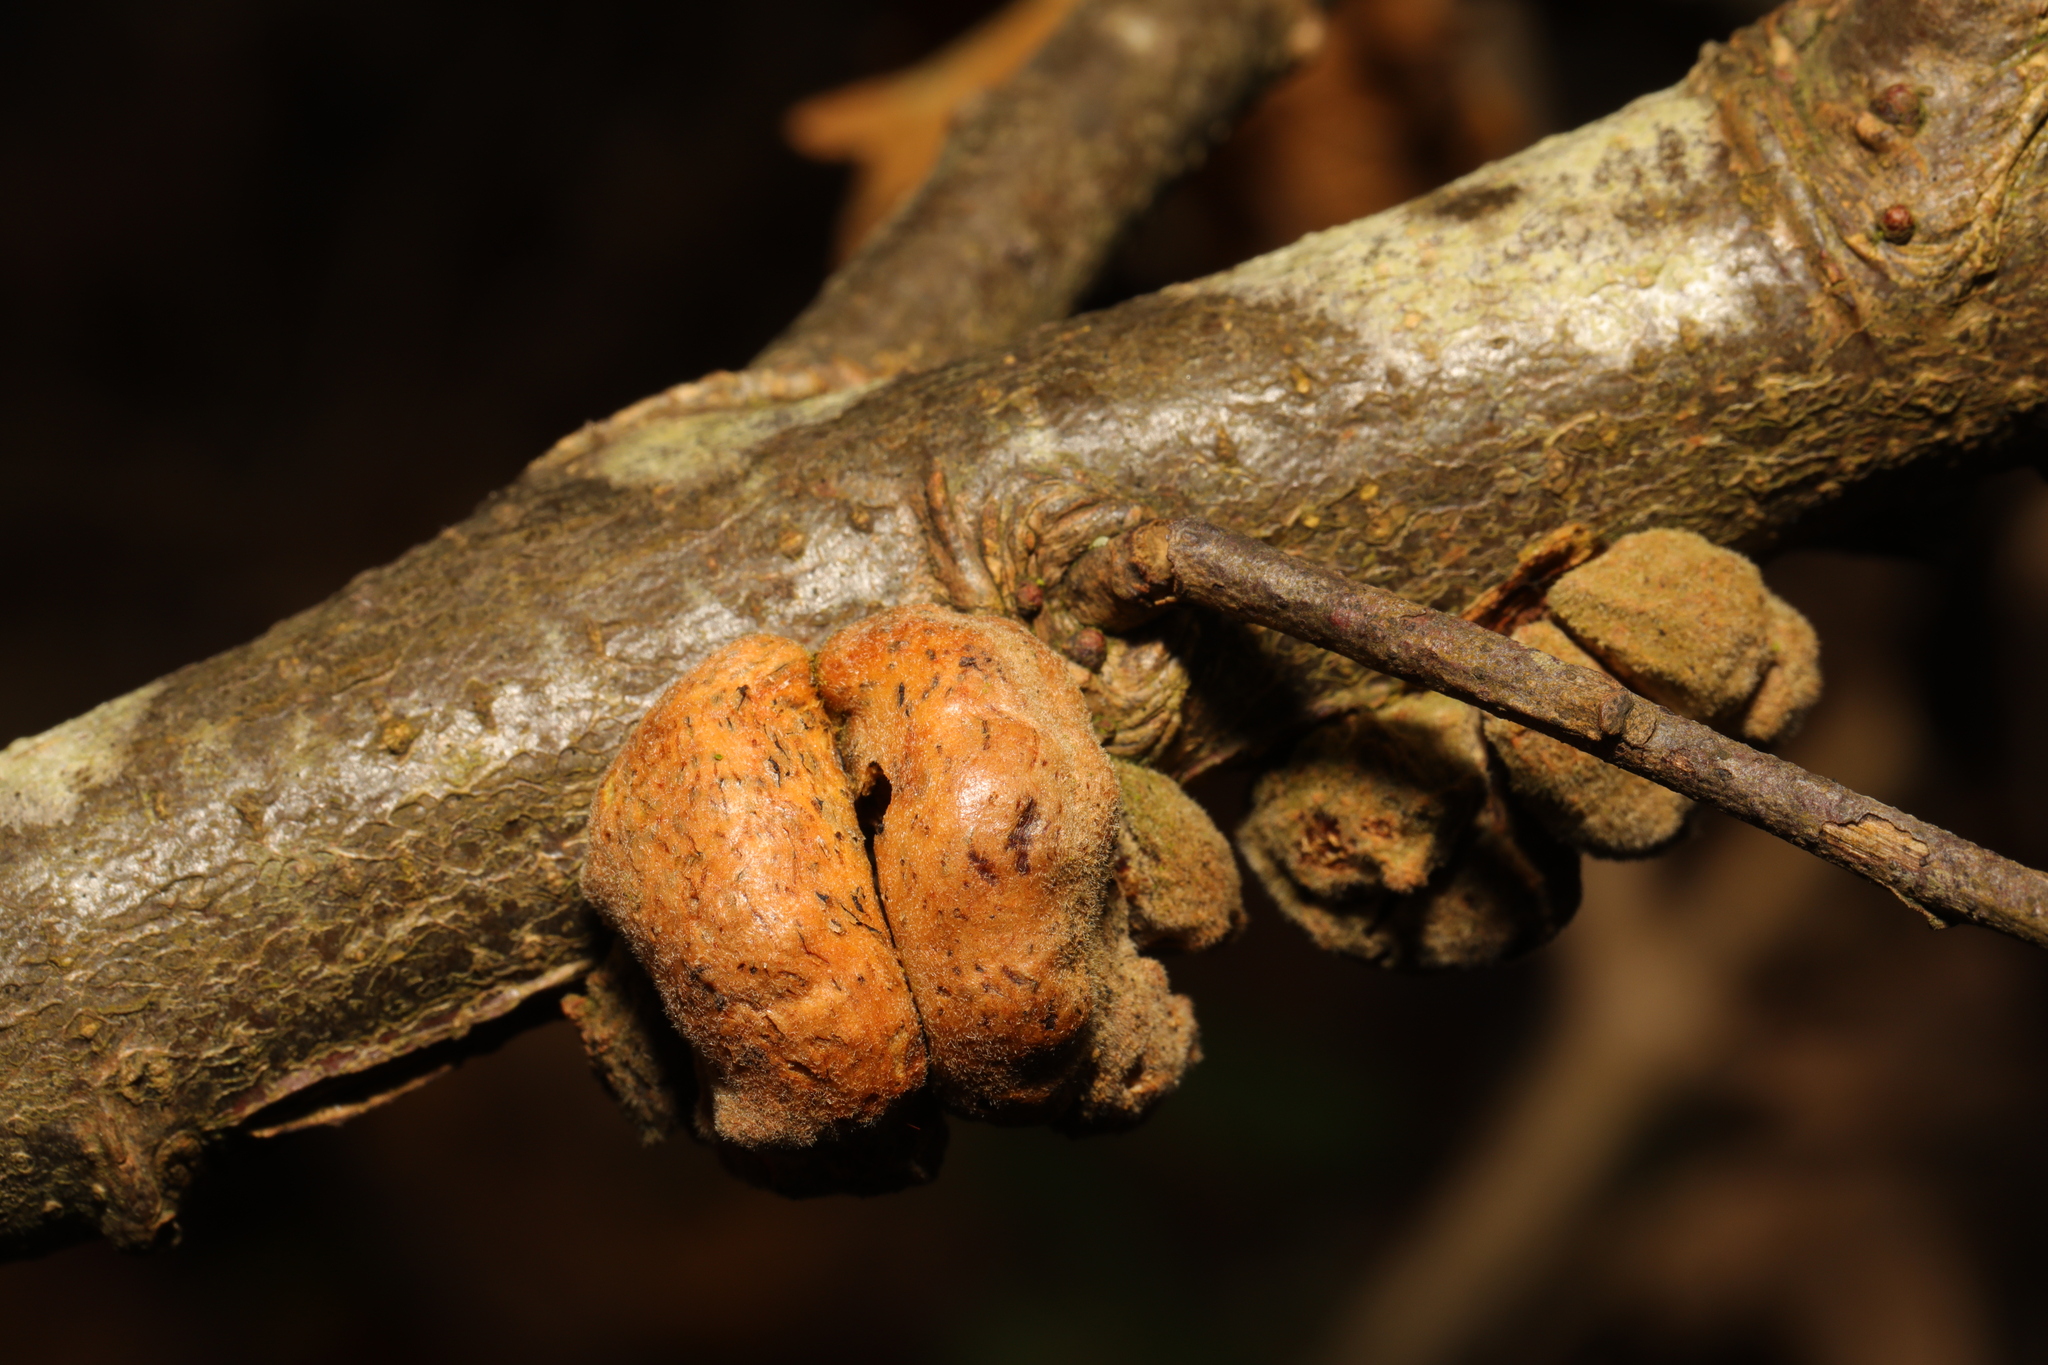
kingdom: Animalia
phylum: Arthropoda
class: Insecta
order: Hymenoptera
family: Cynipidae
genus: Aphelonyx
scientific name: Aphelonyx cerricola
